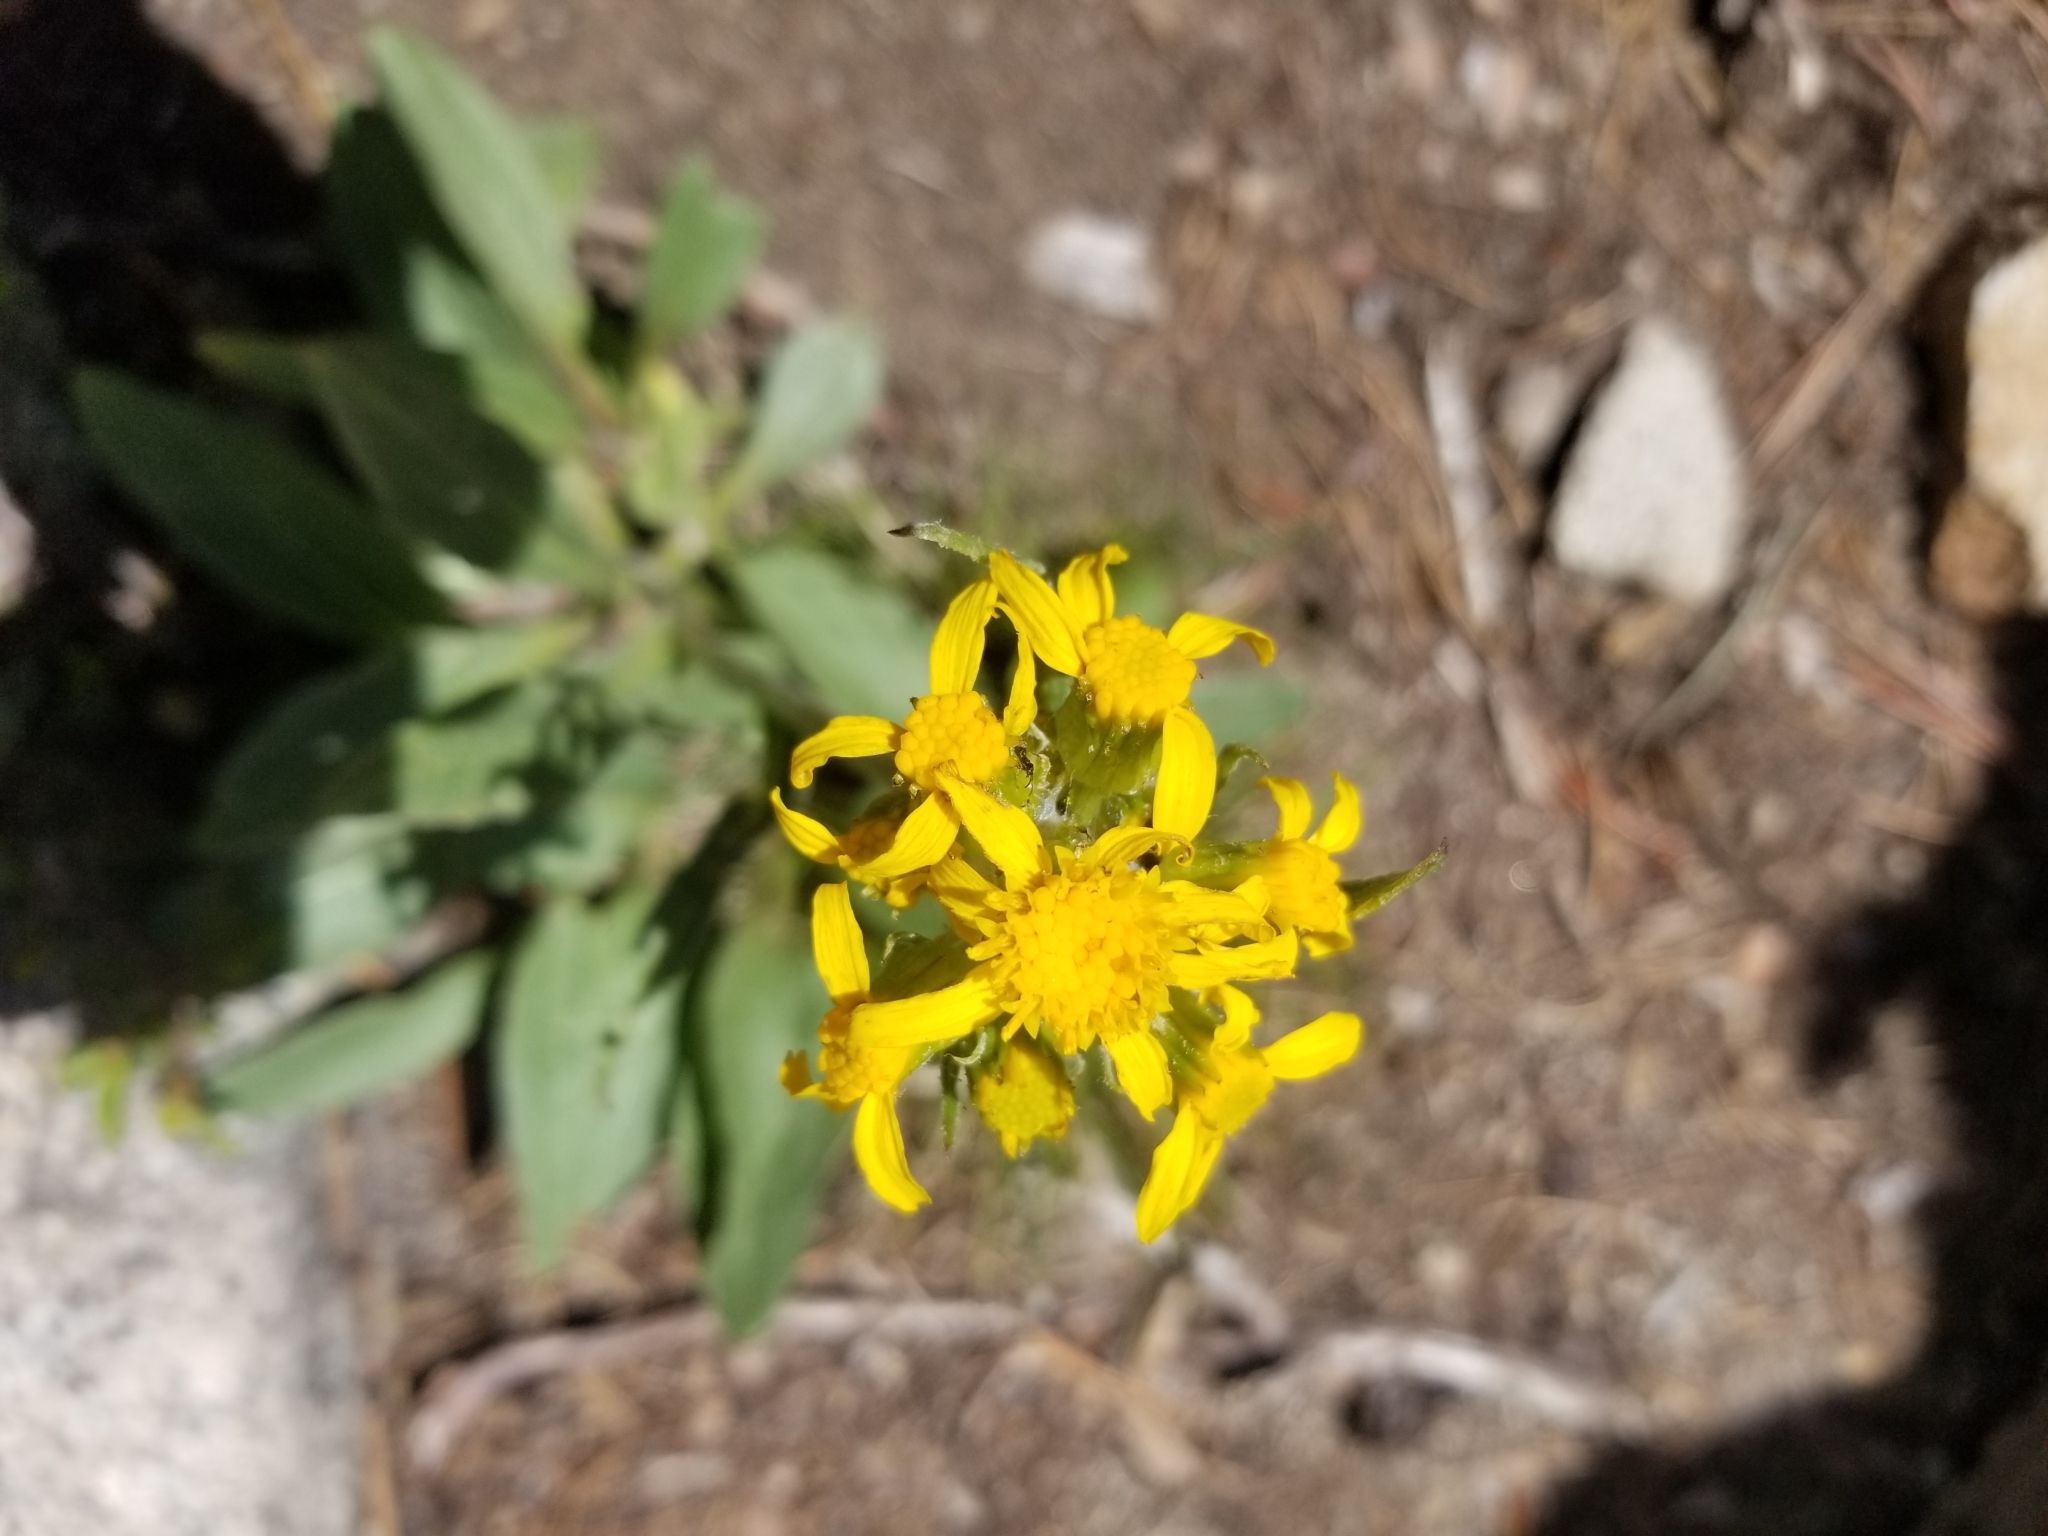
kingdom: Plantae
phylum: Tracheophyta
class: Magnoliopsida
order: Asterales
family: Asteraceae
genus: Senecio
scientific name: Senecio integerrimus
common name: Gaugeplant
